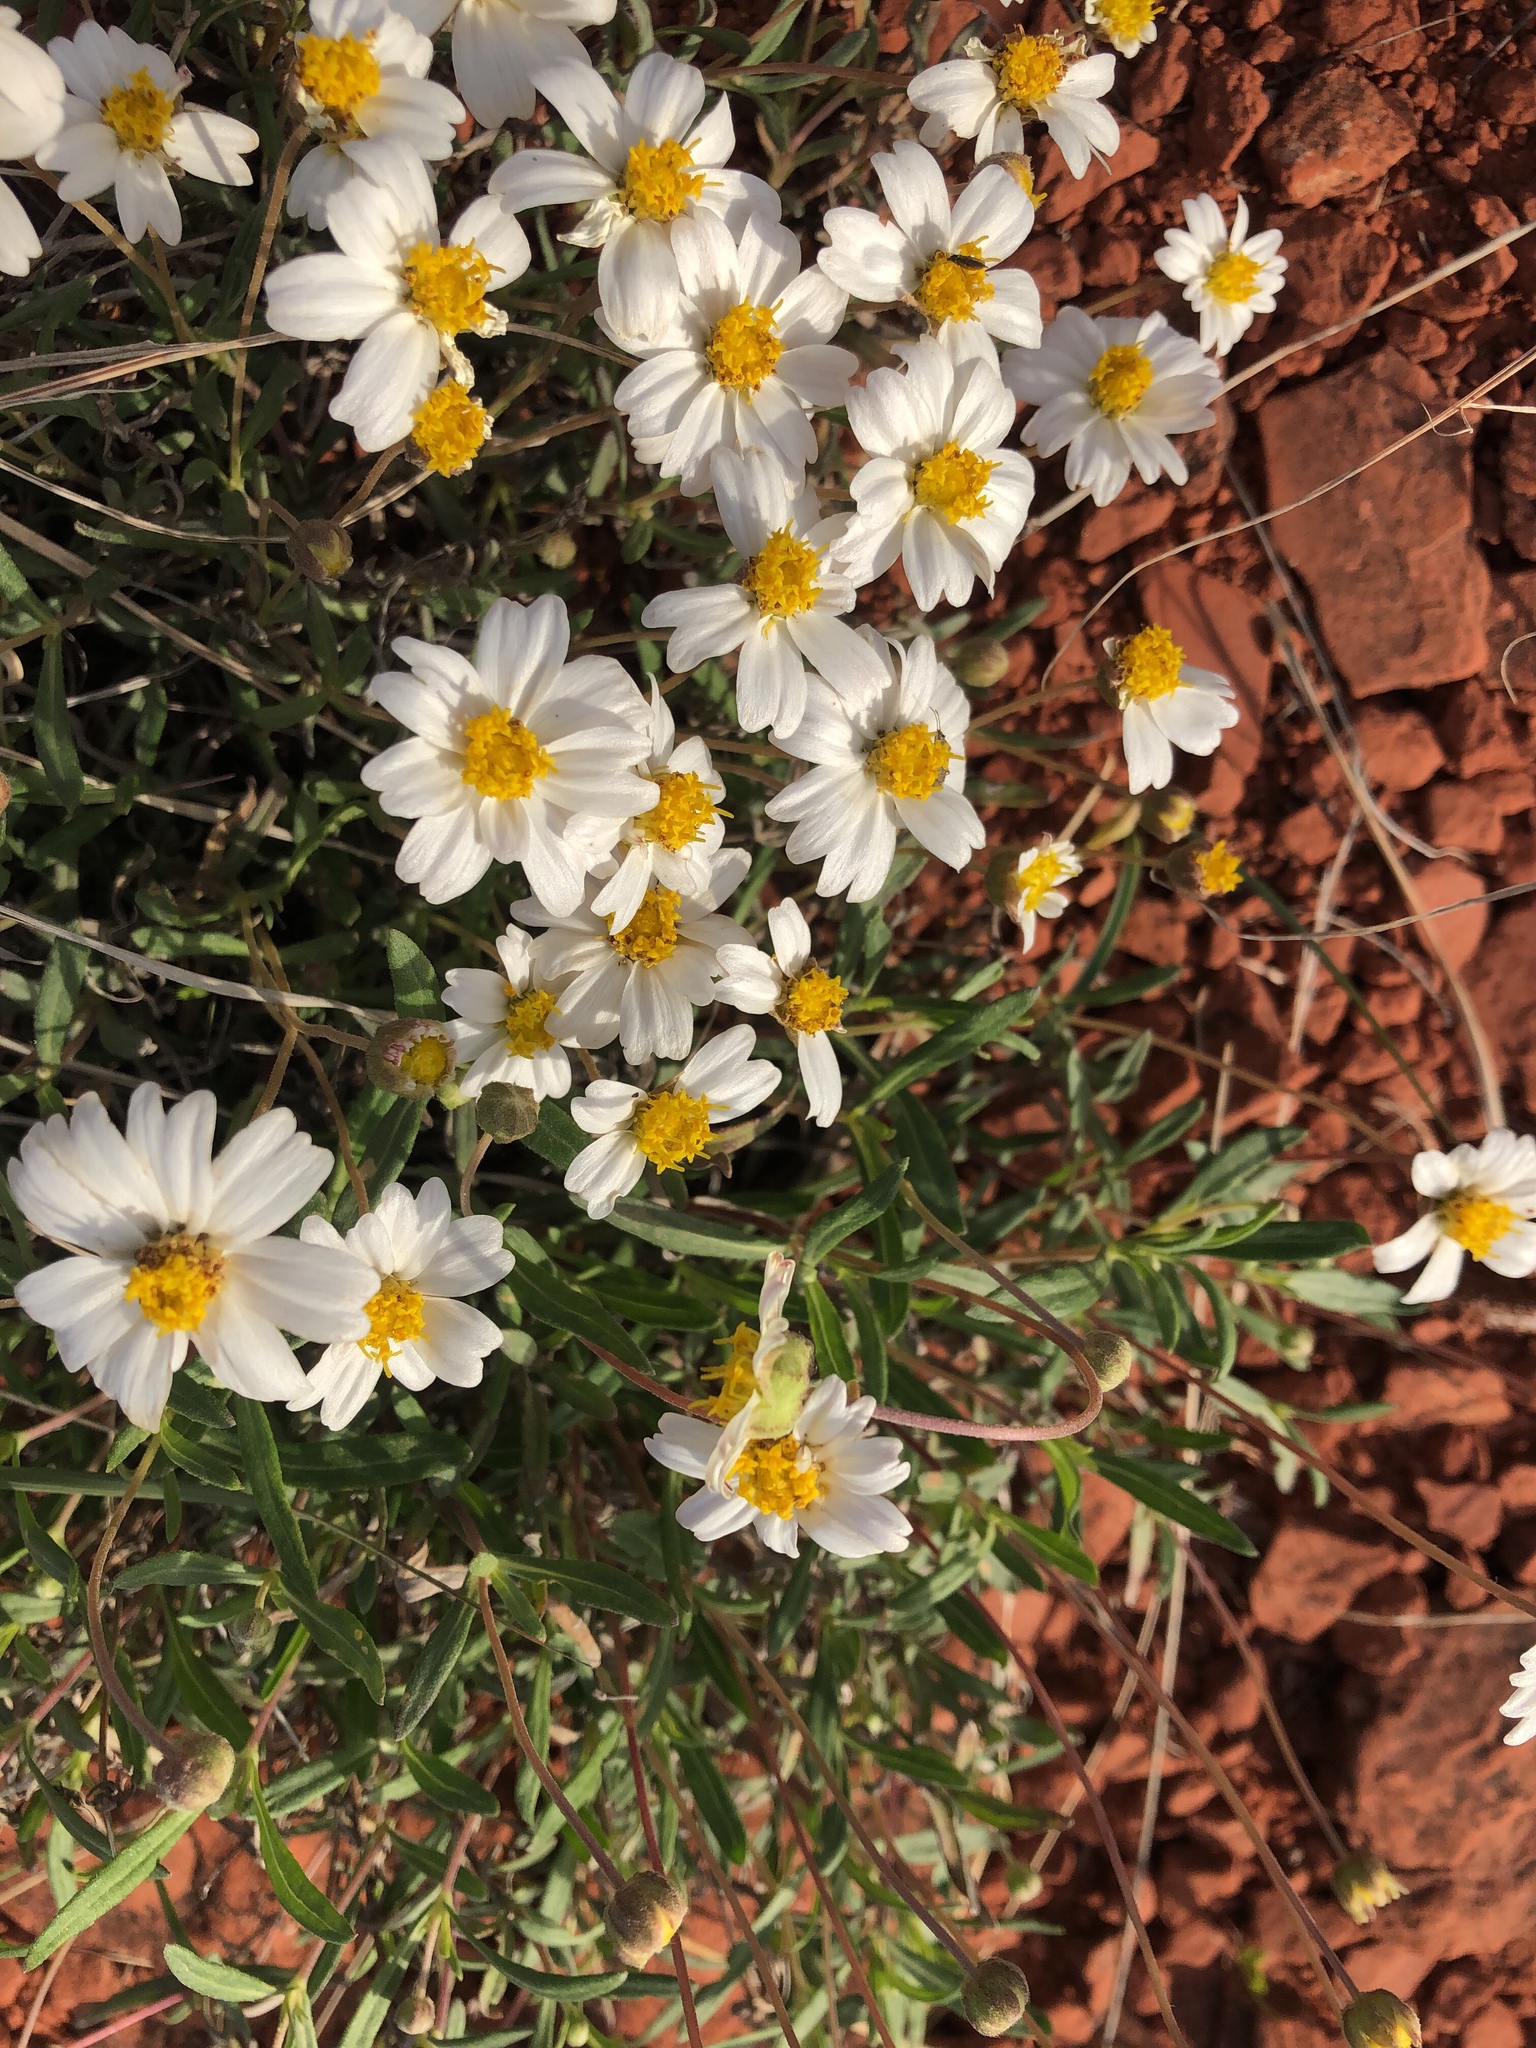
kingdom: Plantae
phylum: Tracheophyta
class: Magnoliopsida
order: Asterales
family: Asteraceae
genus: Melampodium
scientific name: Melampodium leucanthum
